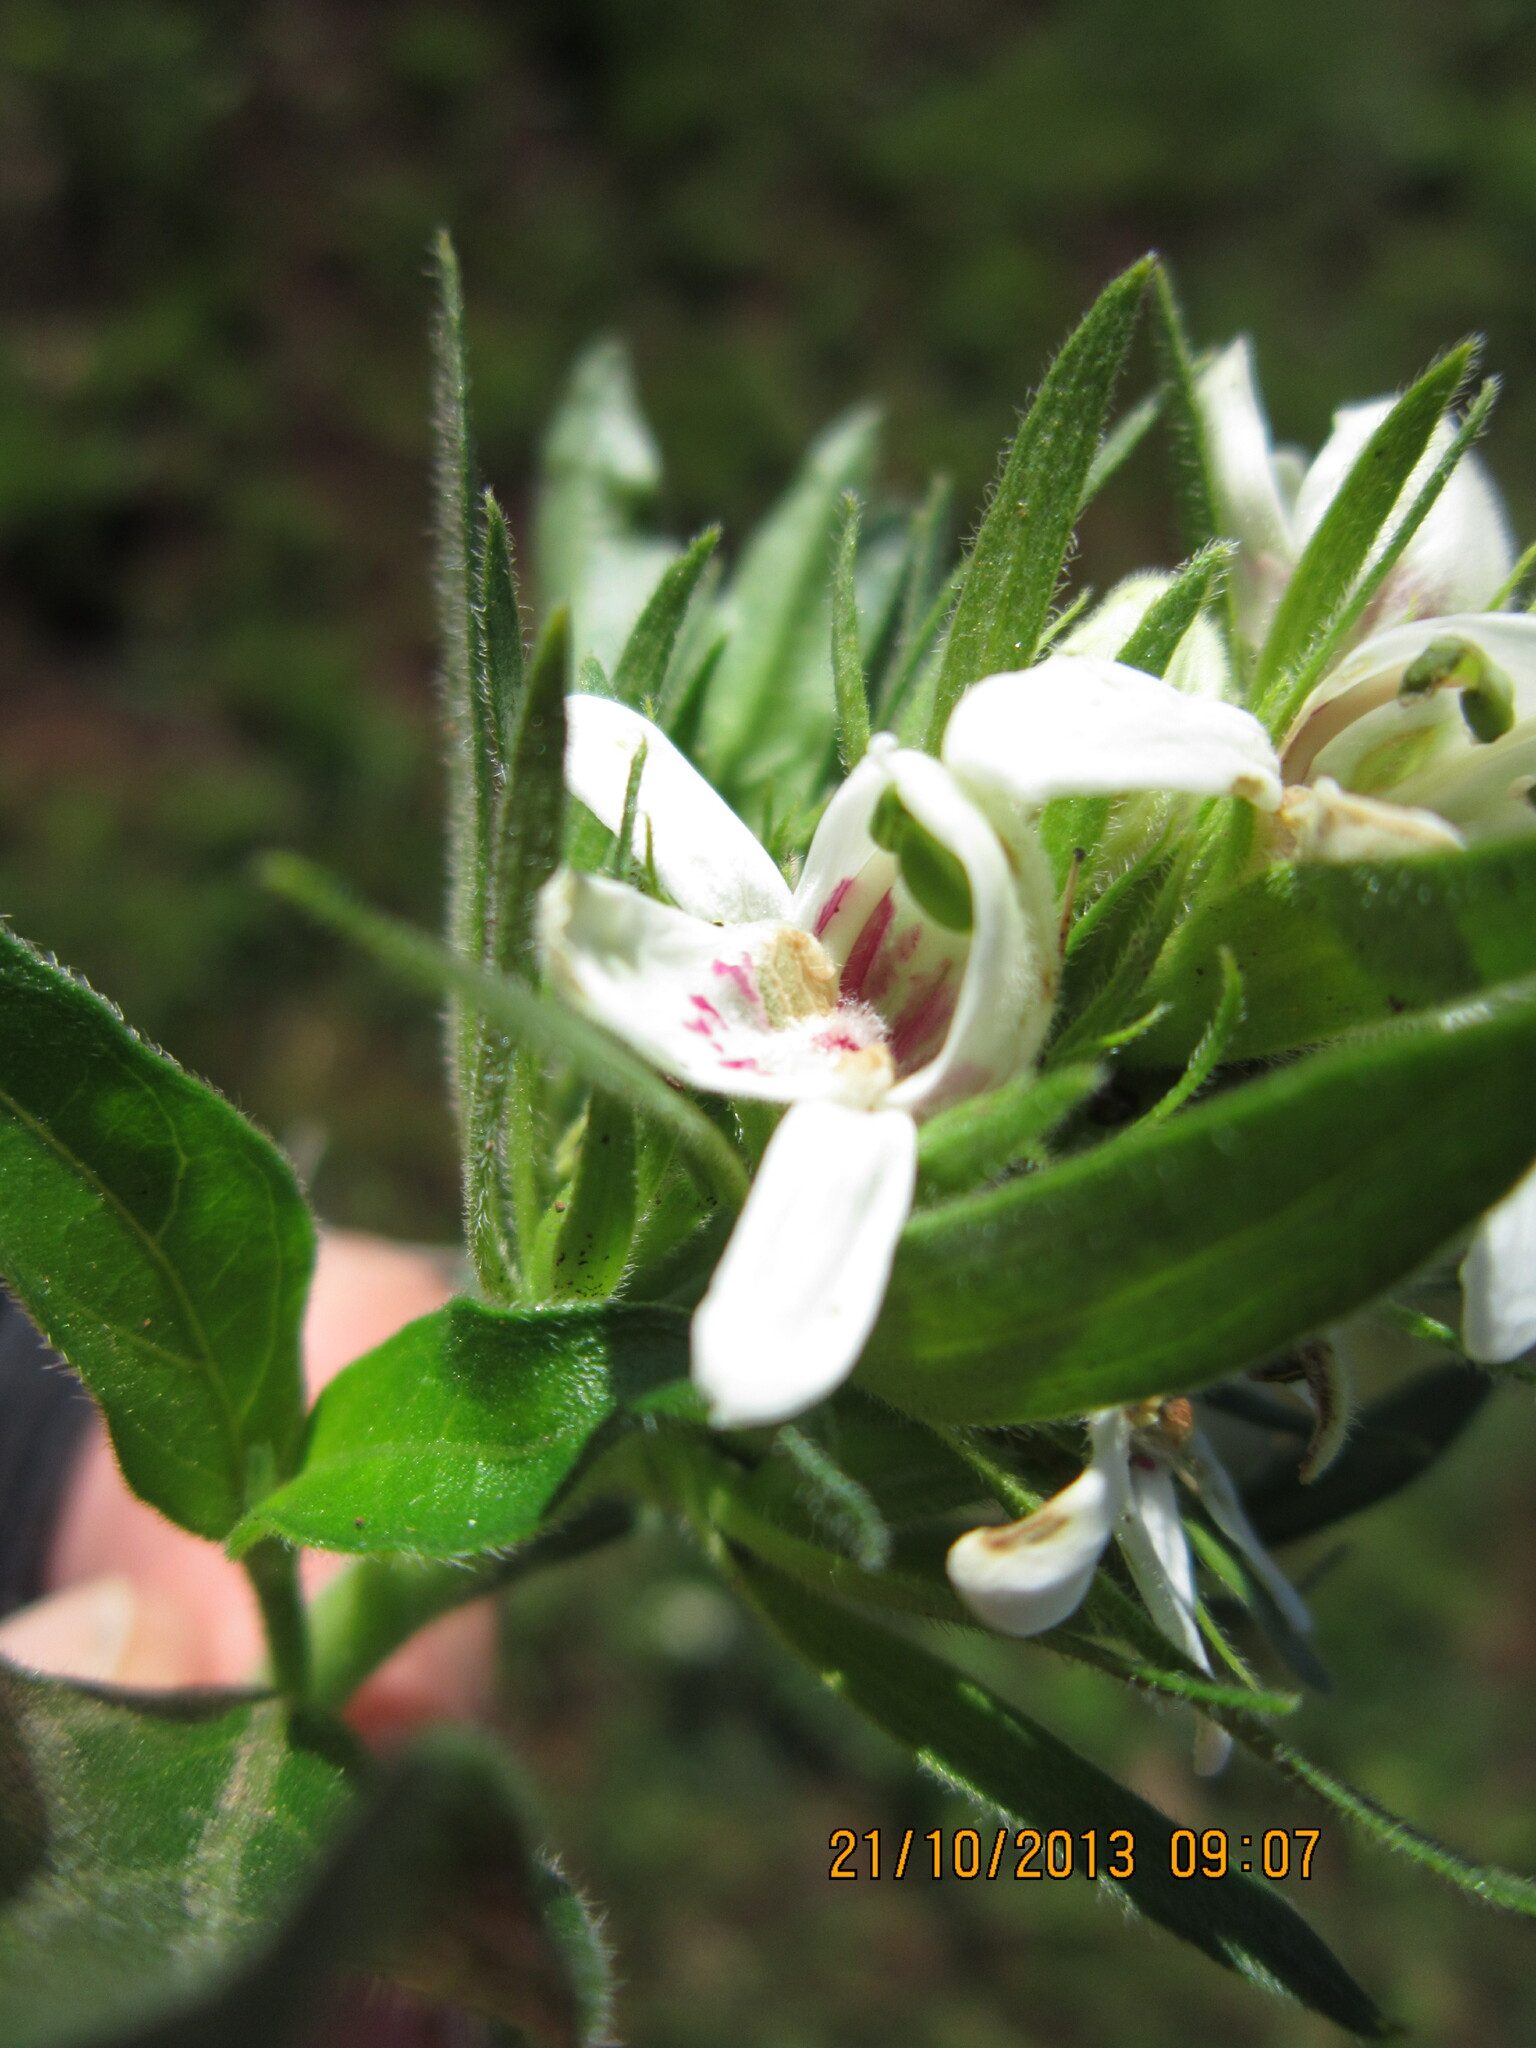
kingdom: Plantae
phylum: Tracheophyta
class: Magnoliopsida
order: Lamiales
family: Acanthaceae
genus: Justicia
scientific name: Justicia andromeda
